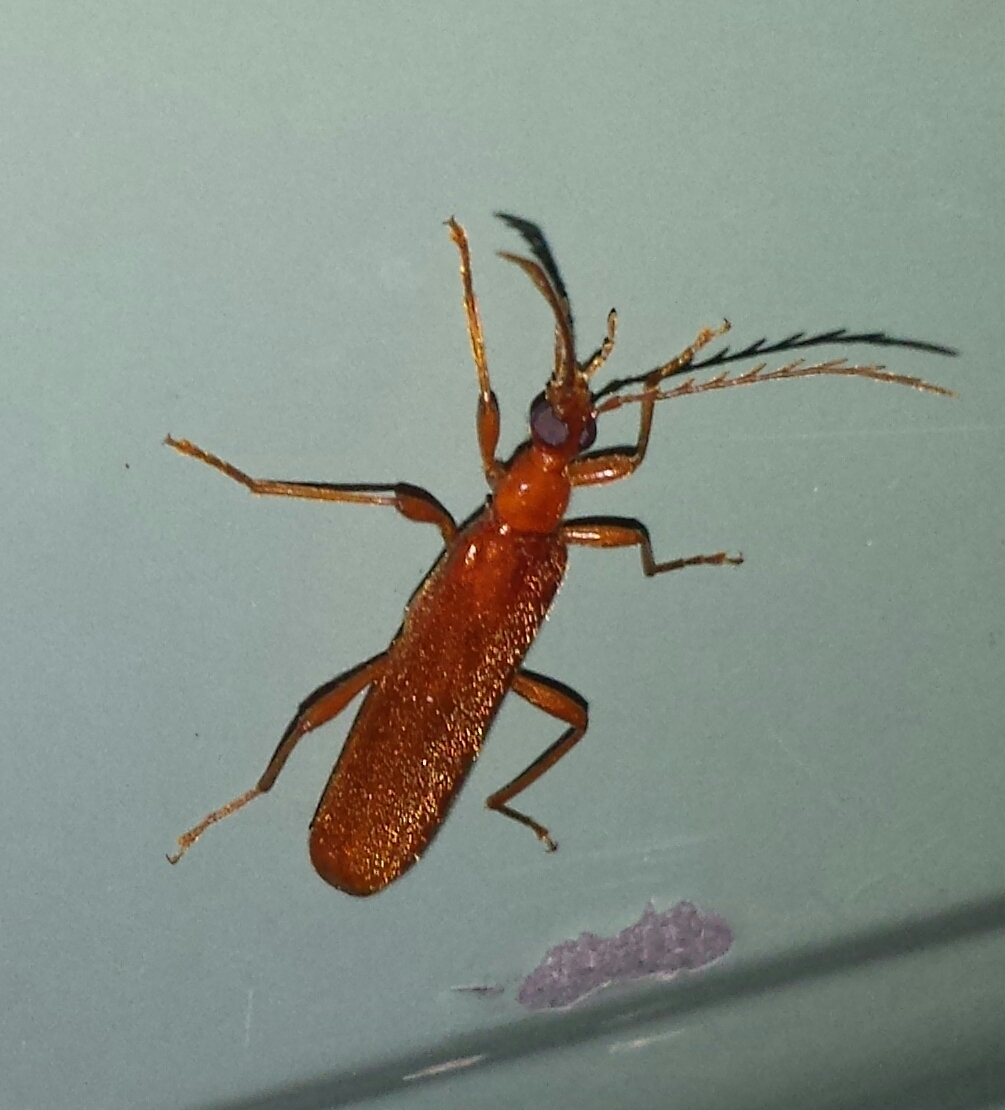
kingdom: Animalia
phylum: Arthropoda
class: Insecta
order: Coleoptera
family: Pyrochroidae
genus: Dendroides
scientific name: Dendroides concolor
